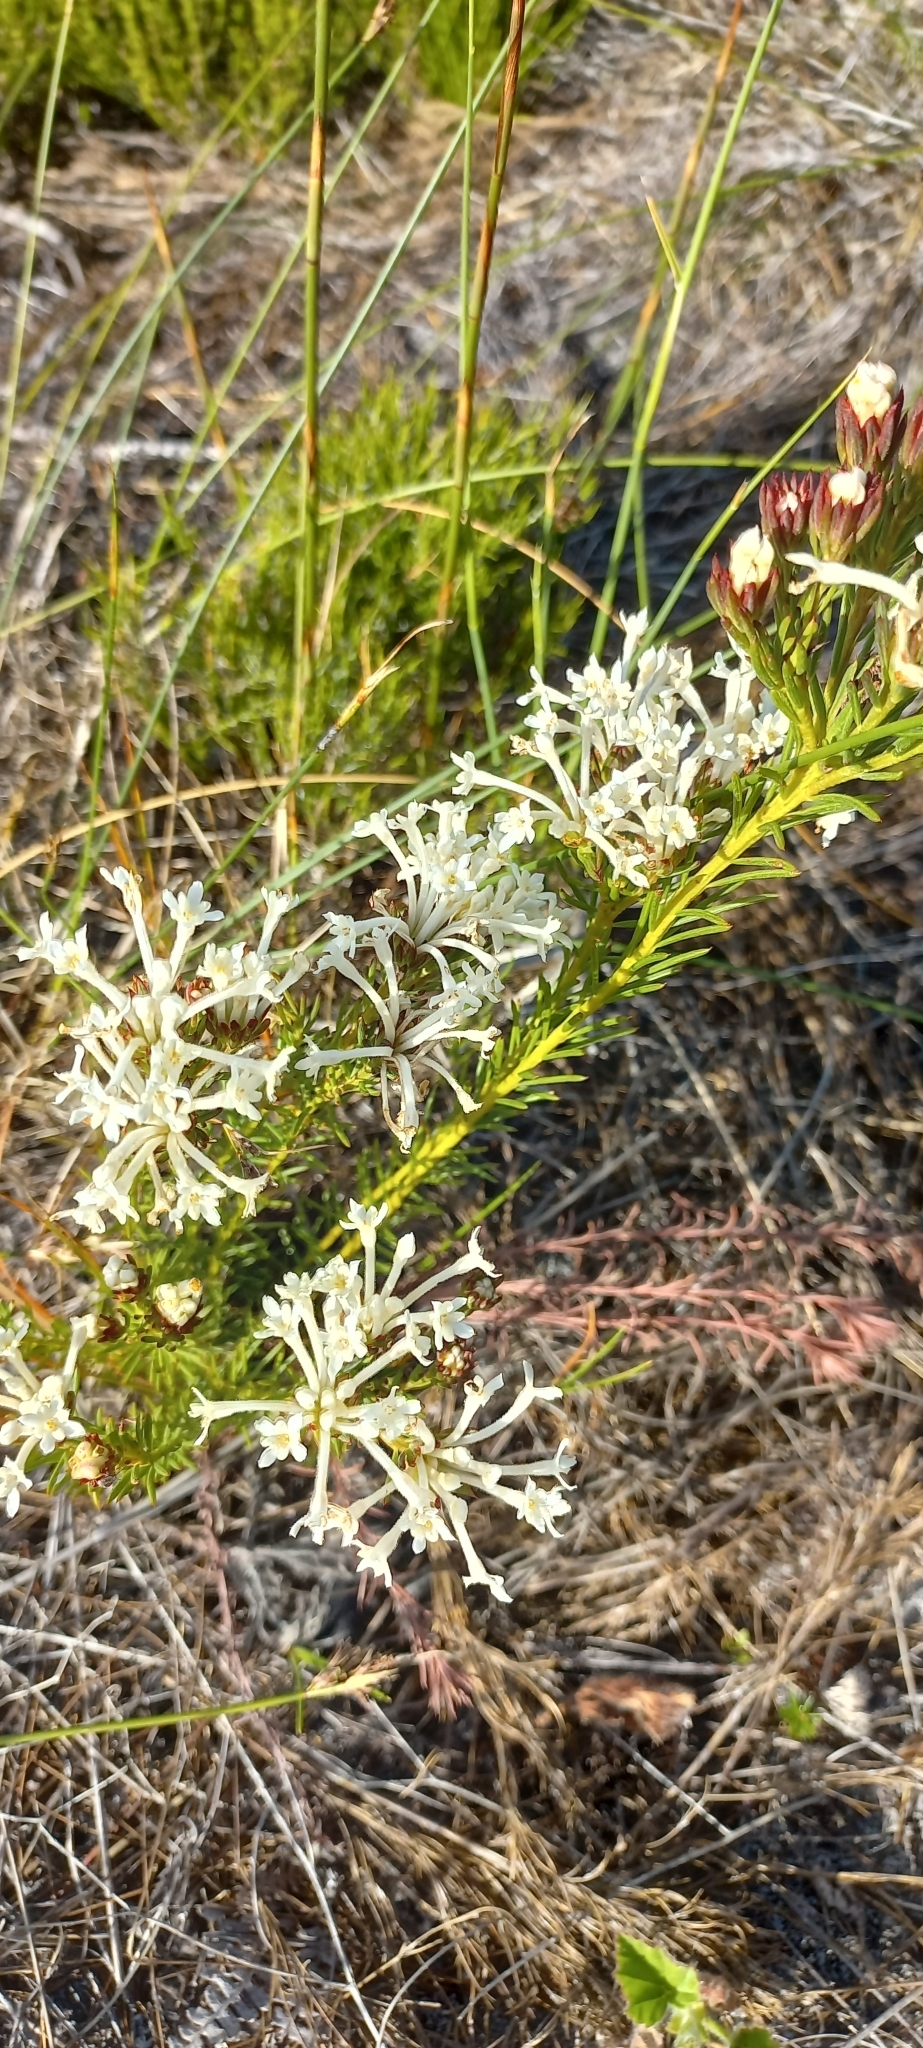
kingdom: Plantae
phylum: Tracheophyta
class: Magnoliopsida
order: Malvales
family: Thymelaeaceae
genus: Gnidia
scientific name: Gnidia pinifolia
